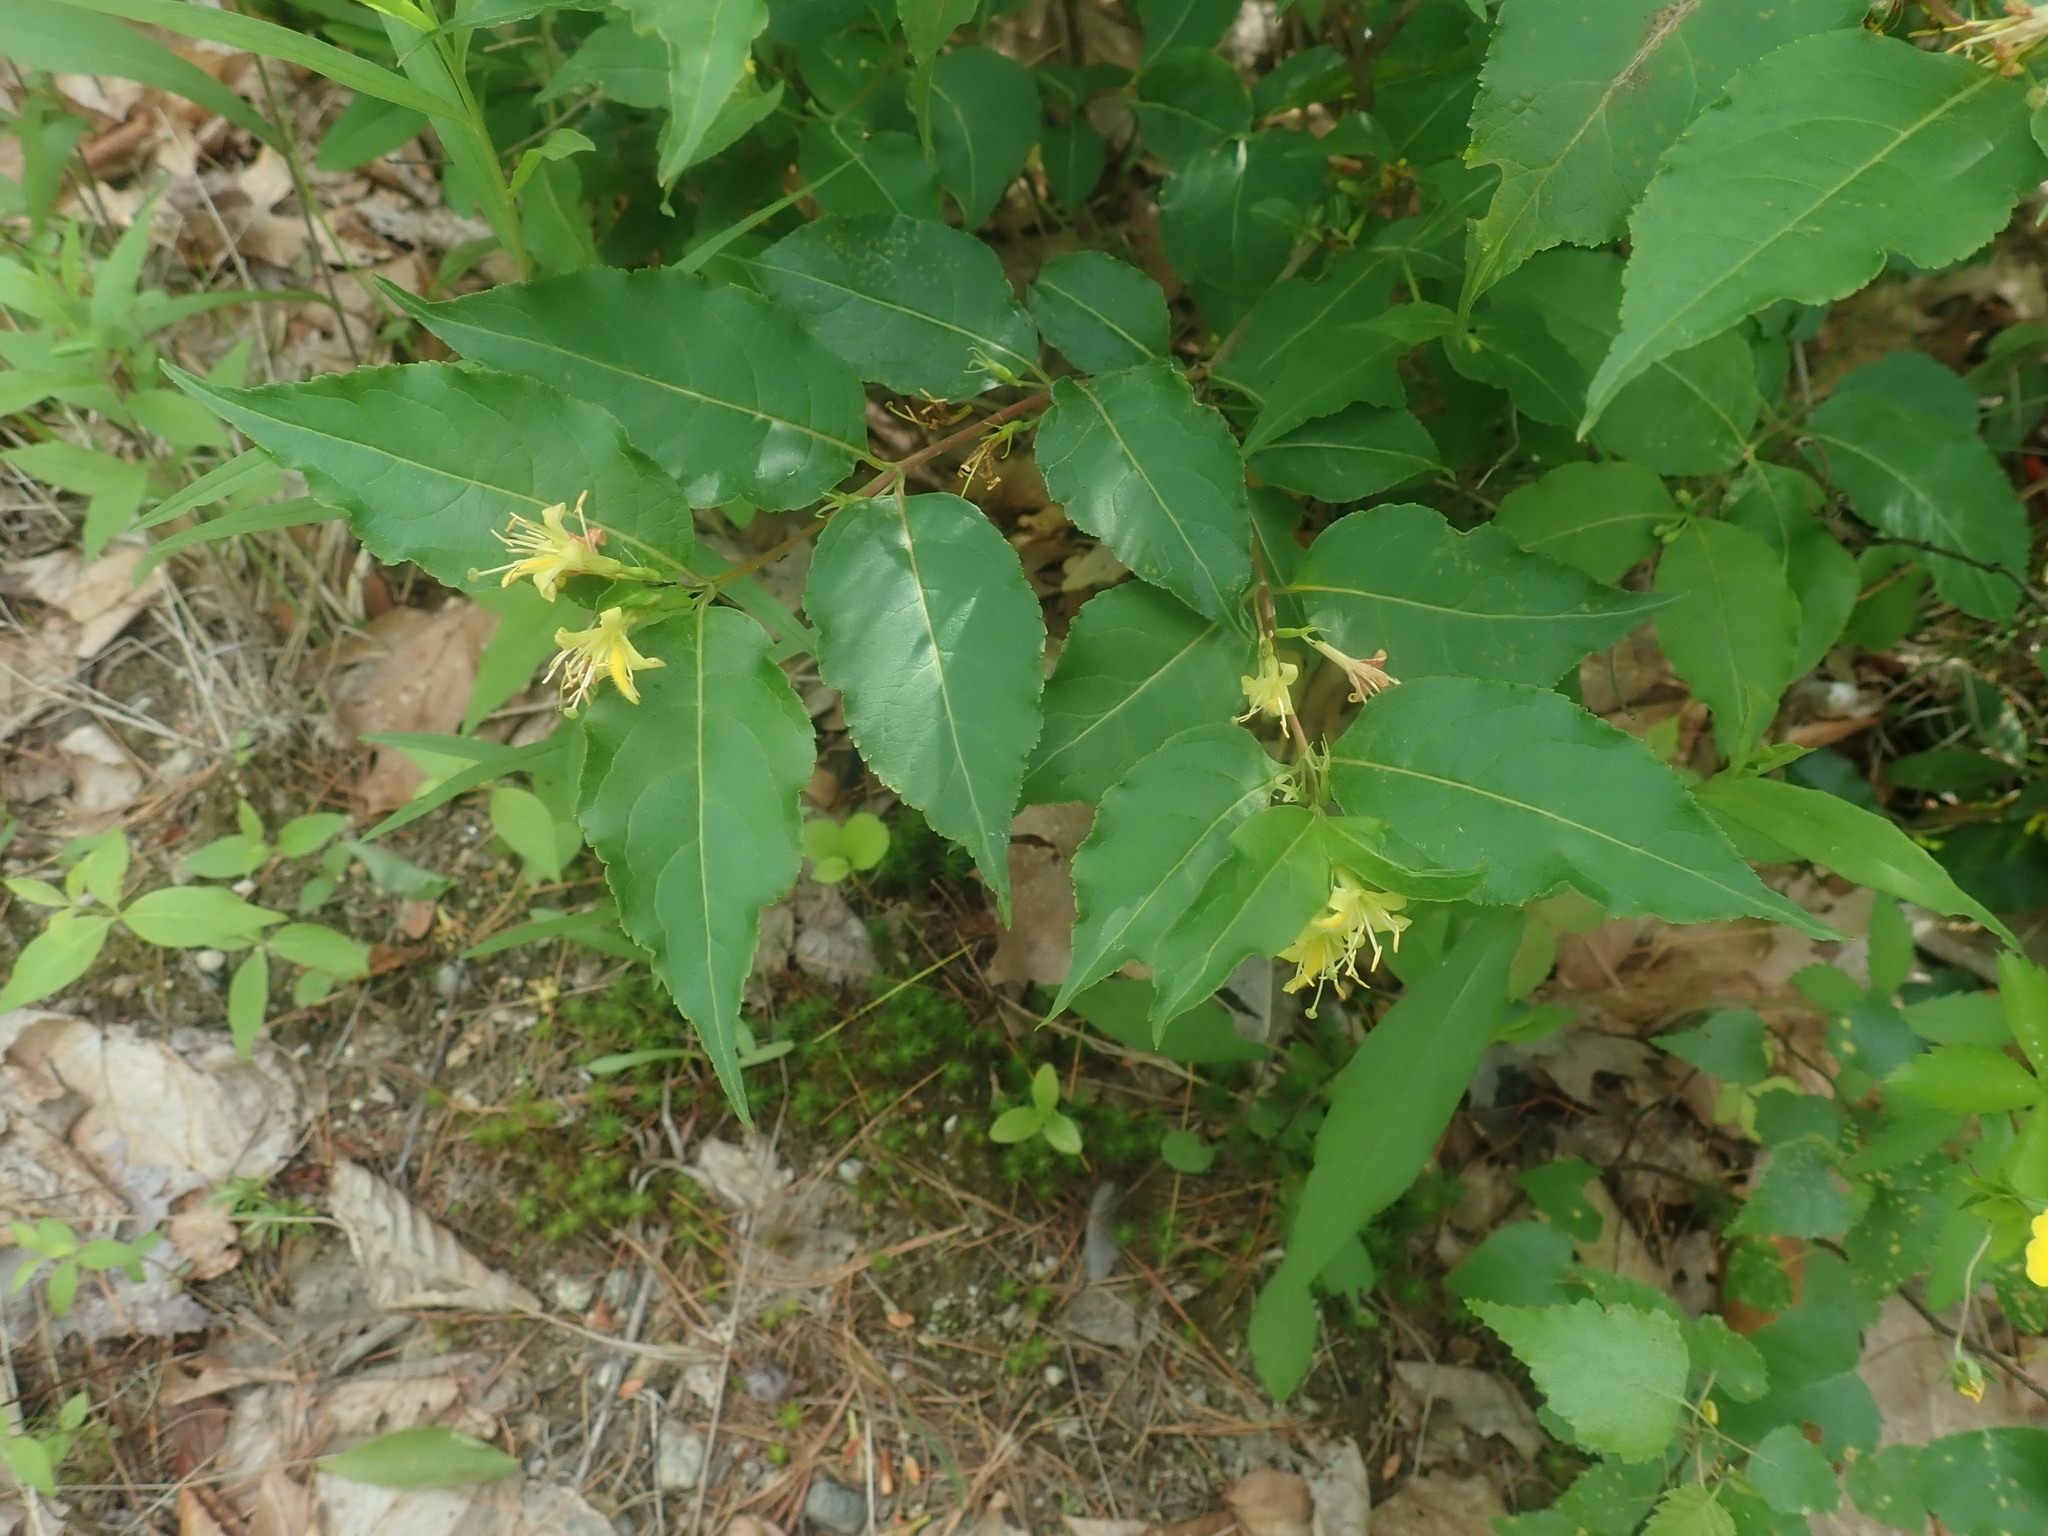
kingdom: Plantae
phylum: Tracheophyta
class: Magnoliopsida
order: Dipsacales
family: Caprifoliaceae
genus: Diervilla
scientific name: Diervilla lonicera
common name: Bush-honeysuckle
